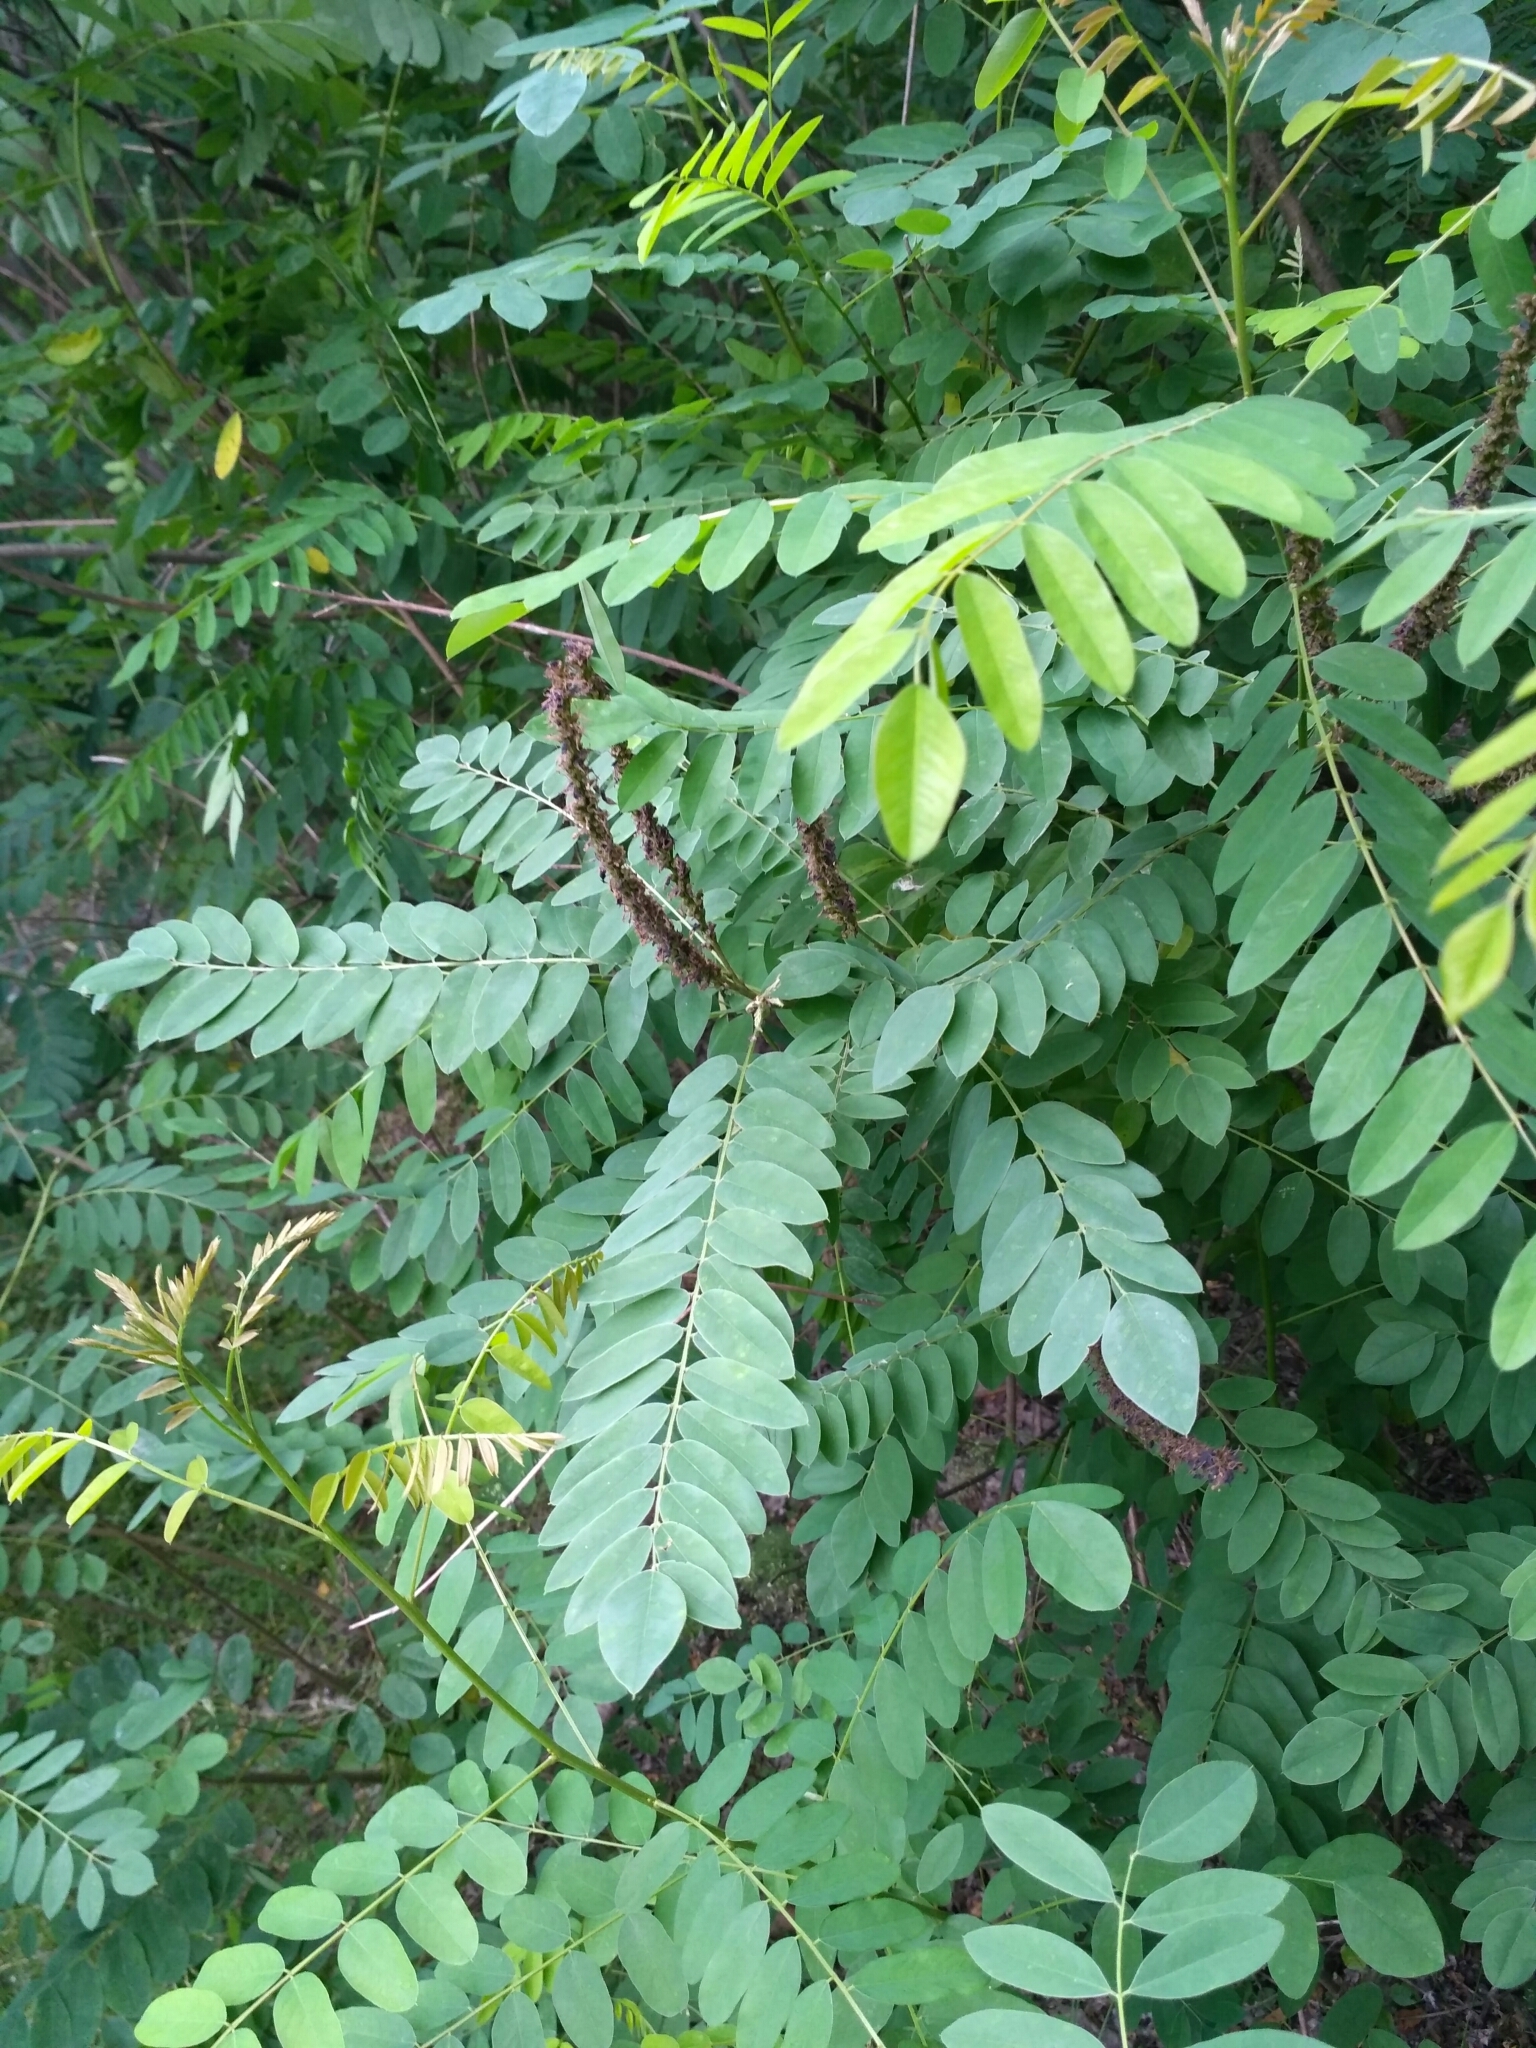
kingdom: Plantae
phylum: Tracheophyta
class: Magnoliopsida
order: Fabales
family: Fabaceae
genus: Amorpha
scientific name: Amorpha fruticosa
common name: False indigo
